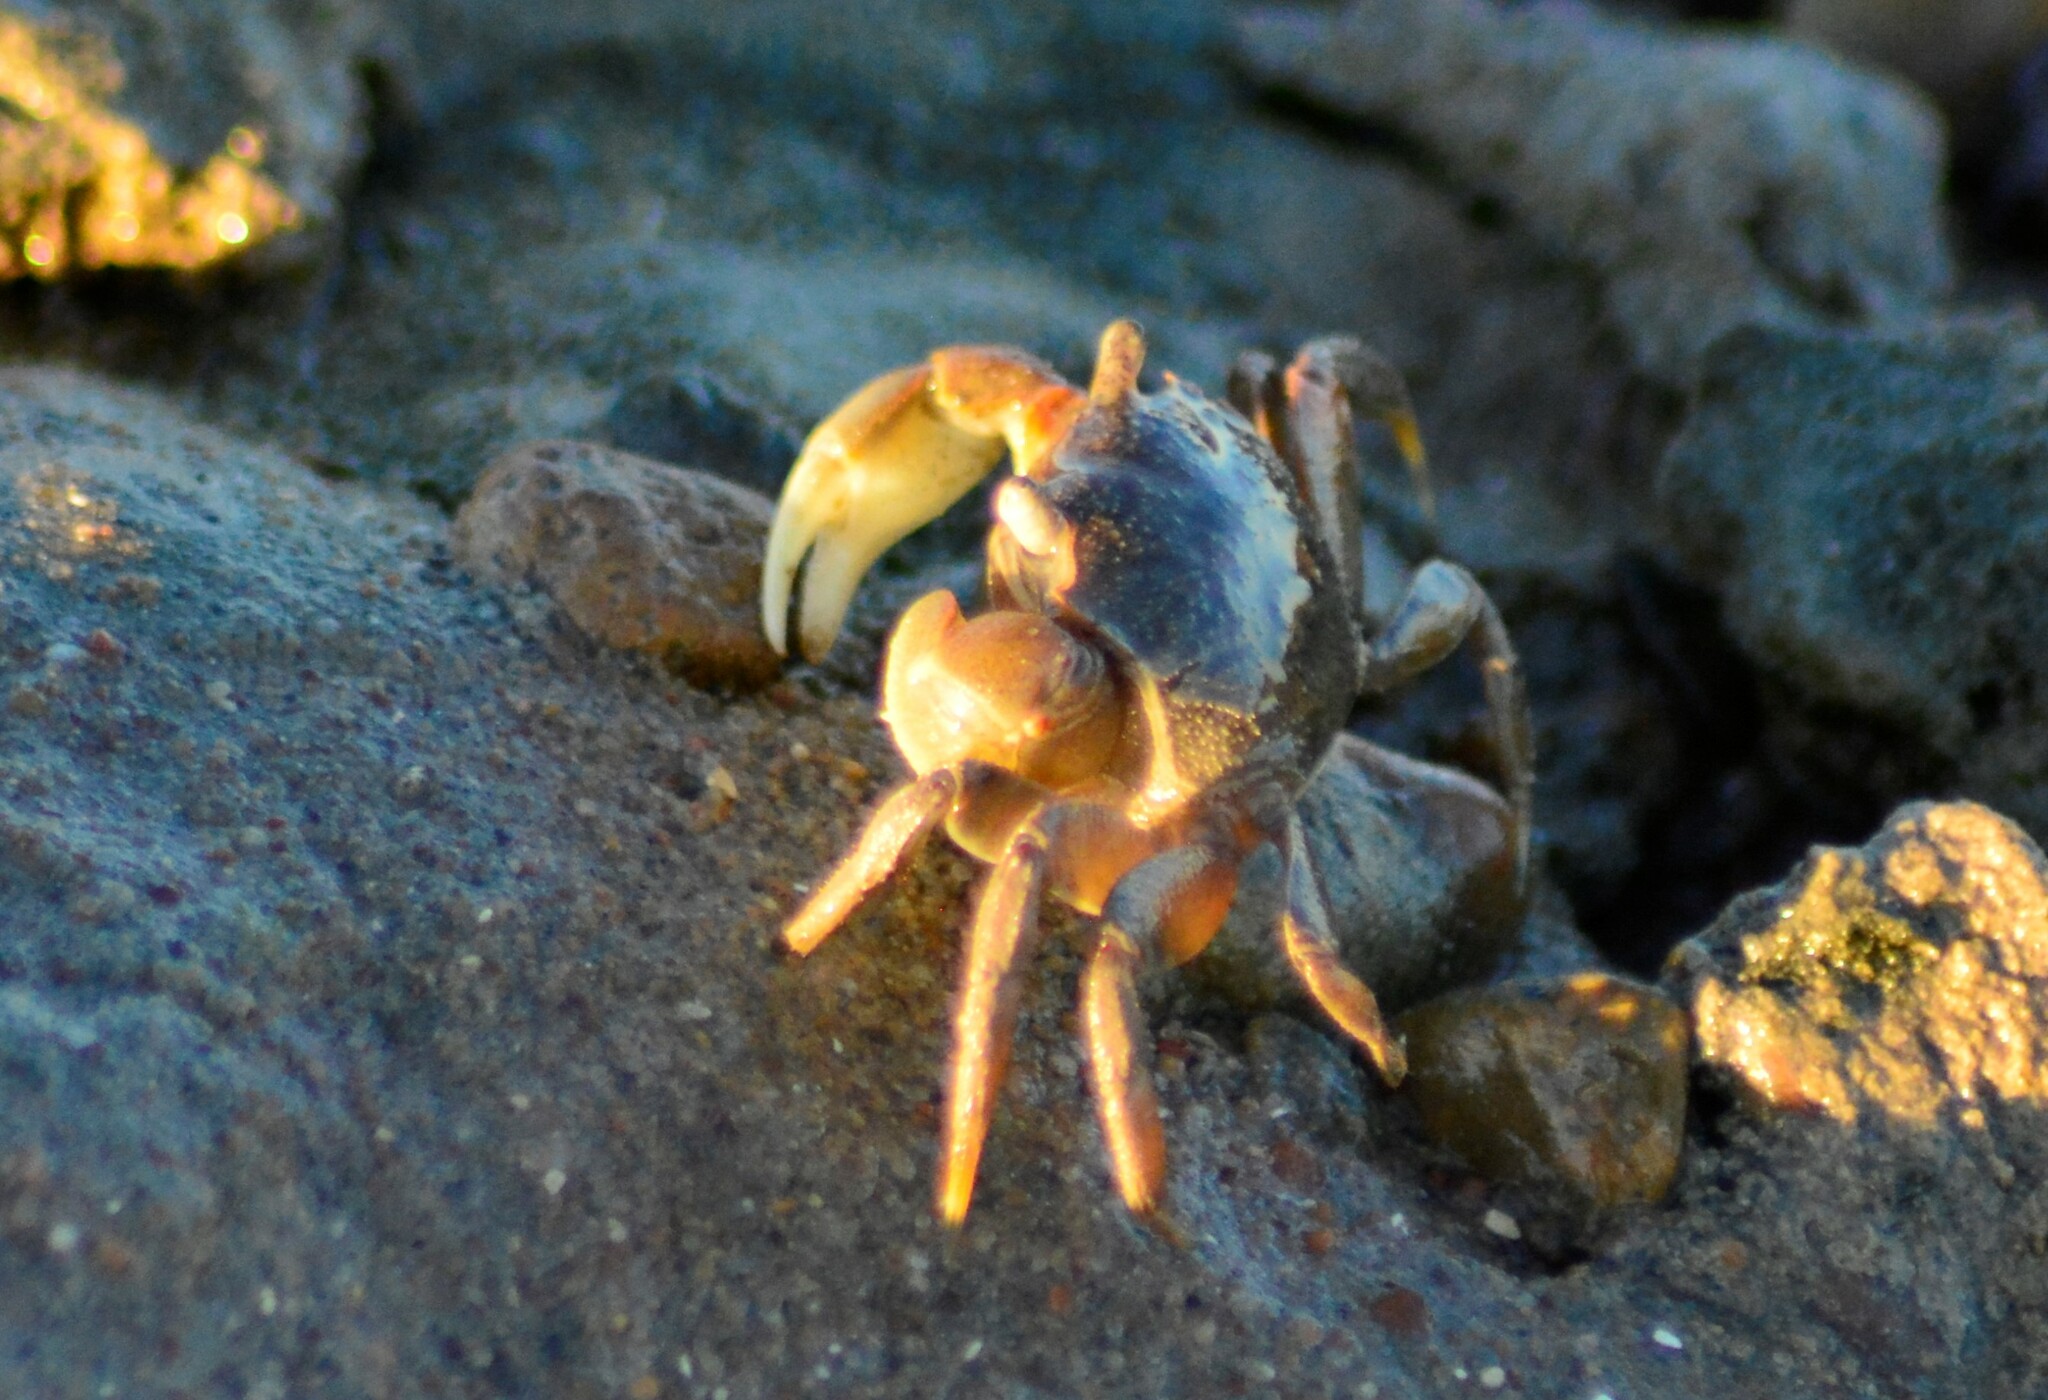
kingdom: Animalia
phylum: Arthropoda
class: Malacostraca
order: Decapoda
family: Varunidae
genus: Neohelice
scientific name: Neohelice granulata
